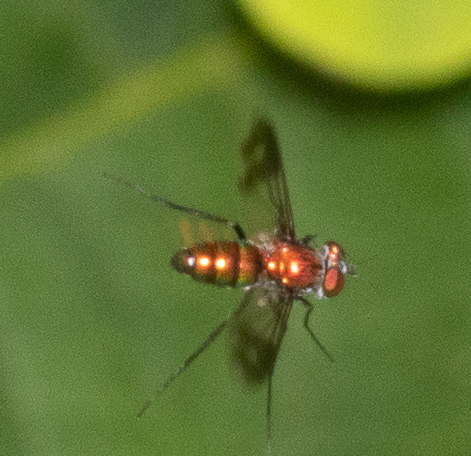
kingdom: Animalia
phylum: Arthropoda
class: Insecta
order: Diptera
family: Dolichopodidae
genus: Condylostylus
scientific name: Condylostylus patibulatus
